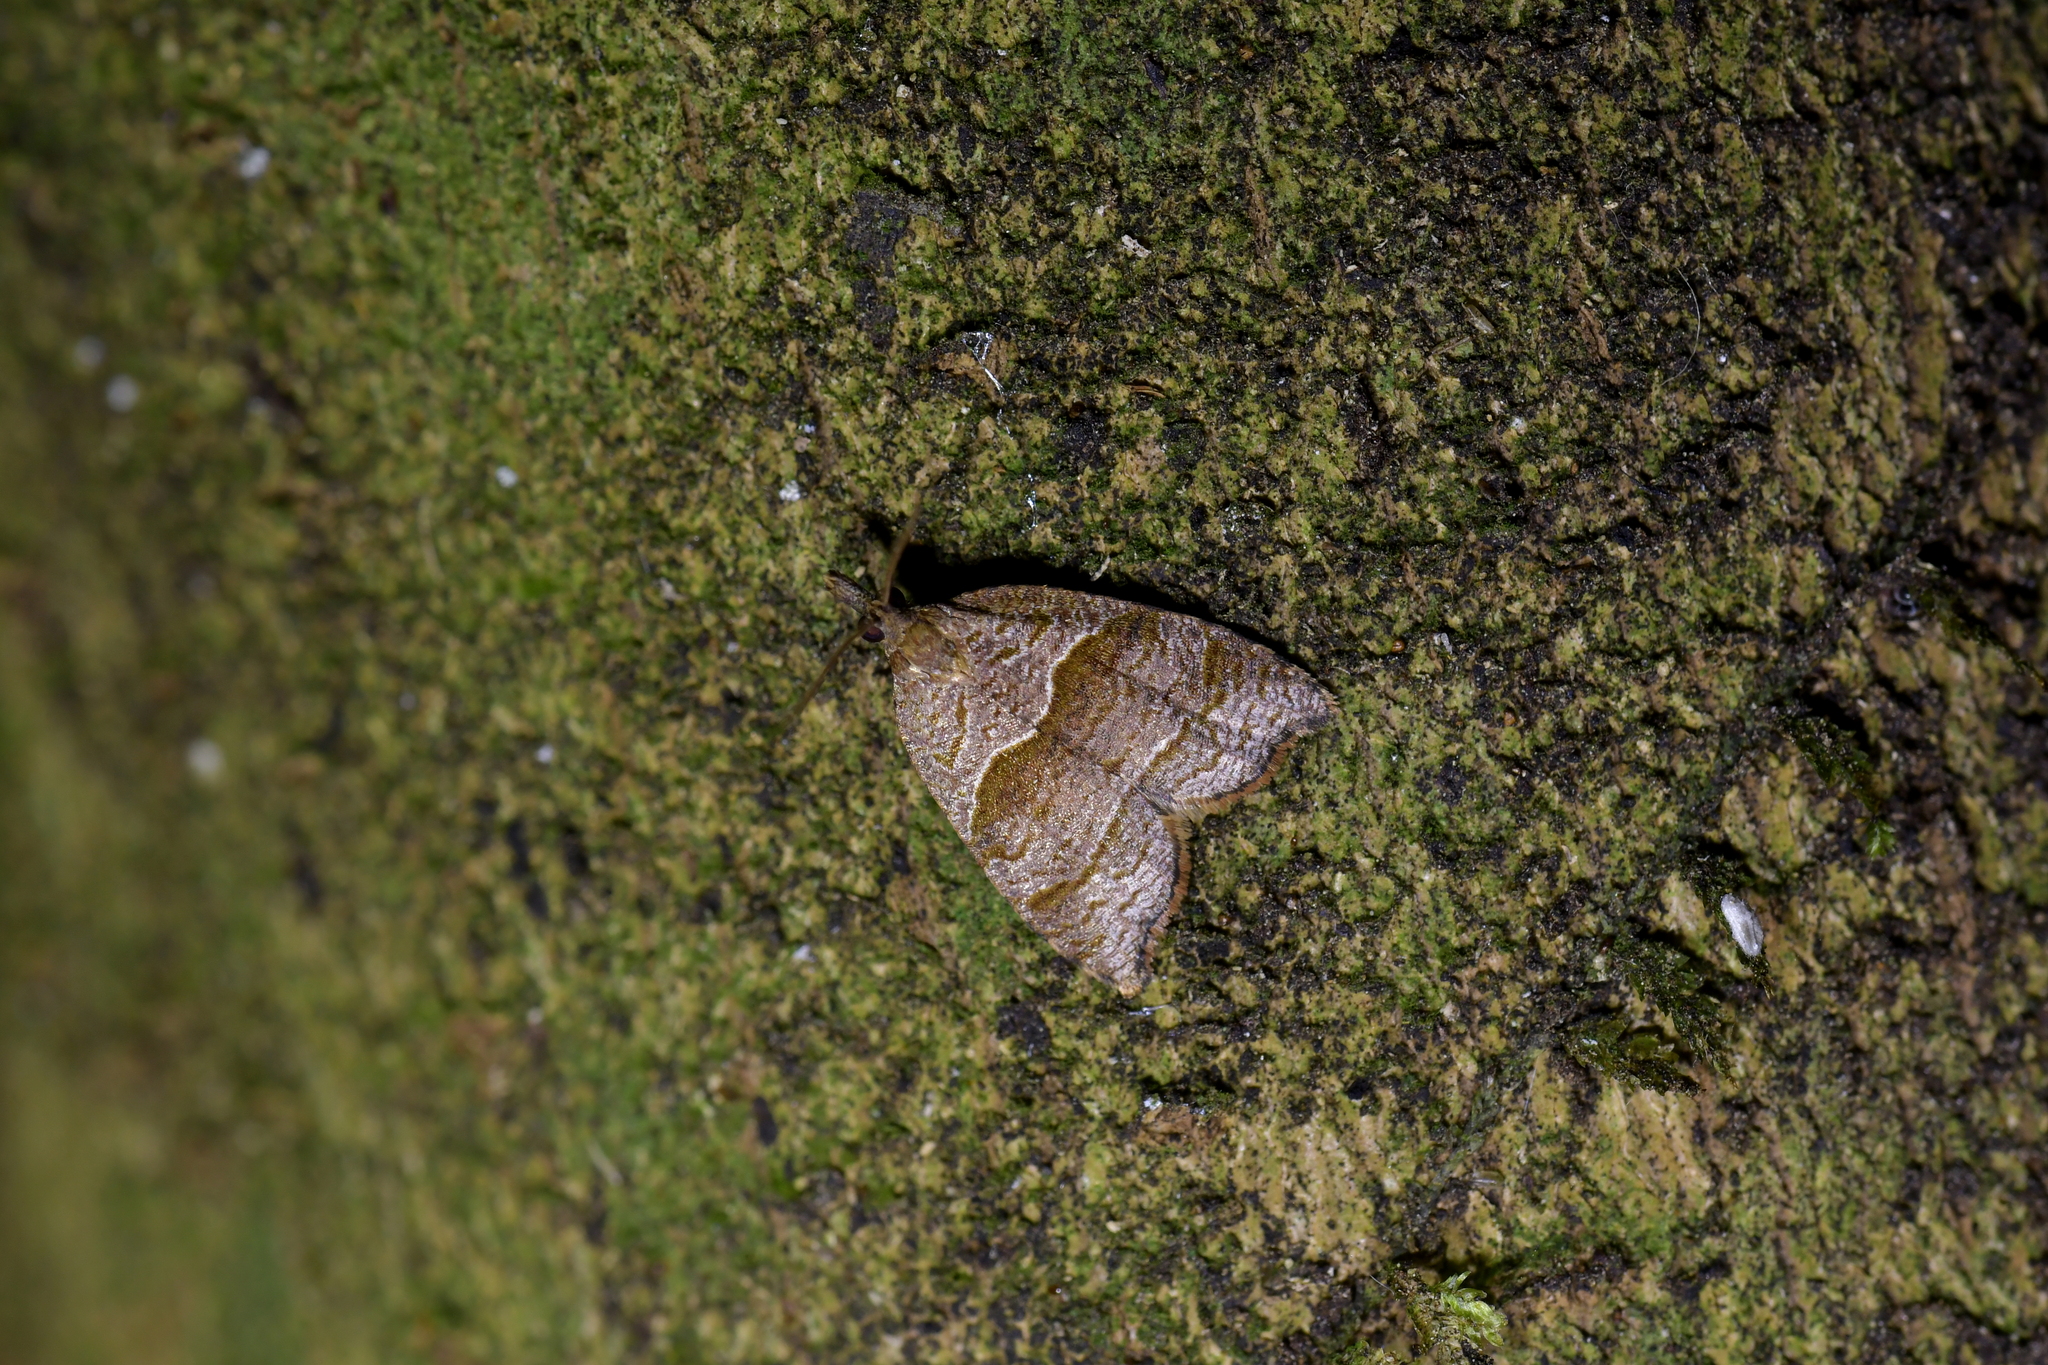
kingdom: Animalia
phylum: Arthropoda
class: Insecta
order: Lepidoptera
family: Tortricidae
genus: Cnephasia
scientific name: Cnephasia incertana
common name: Light grey tortrix
